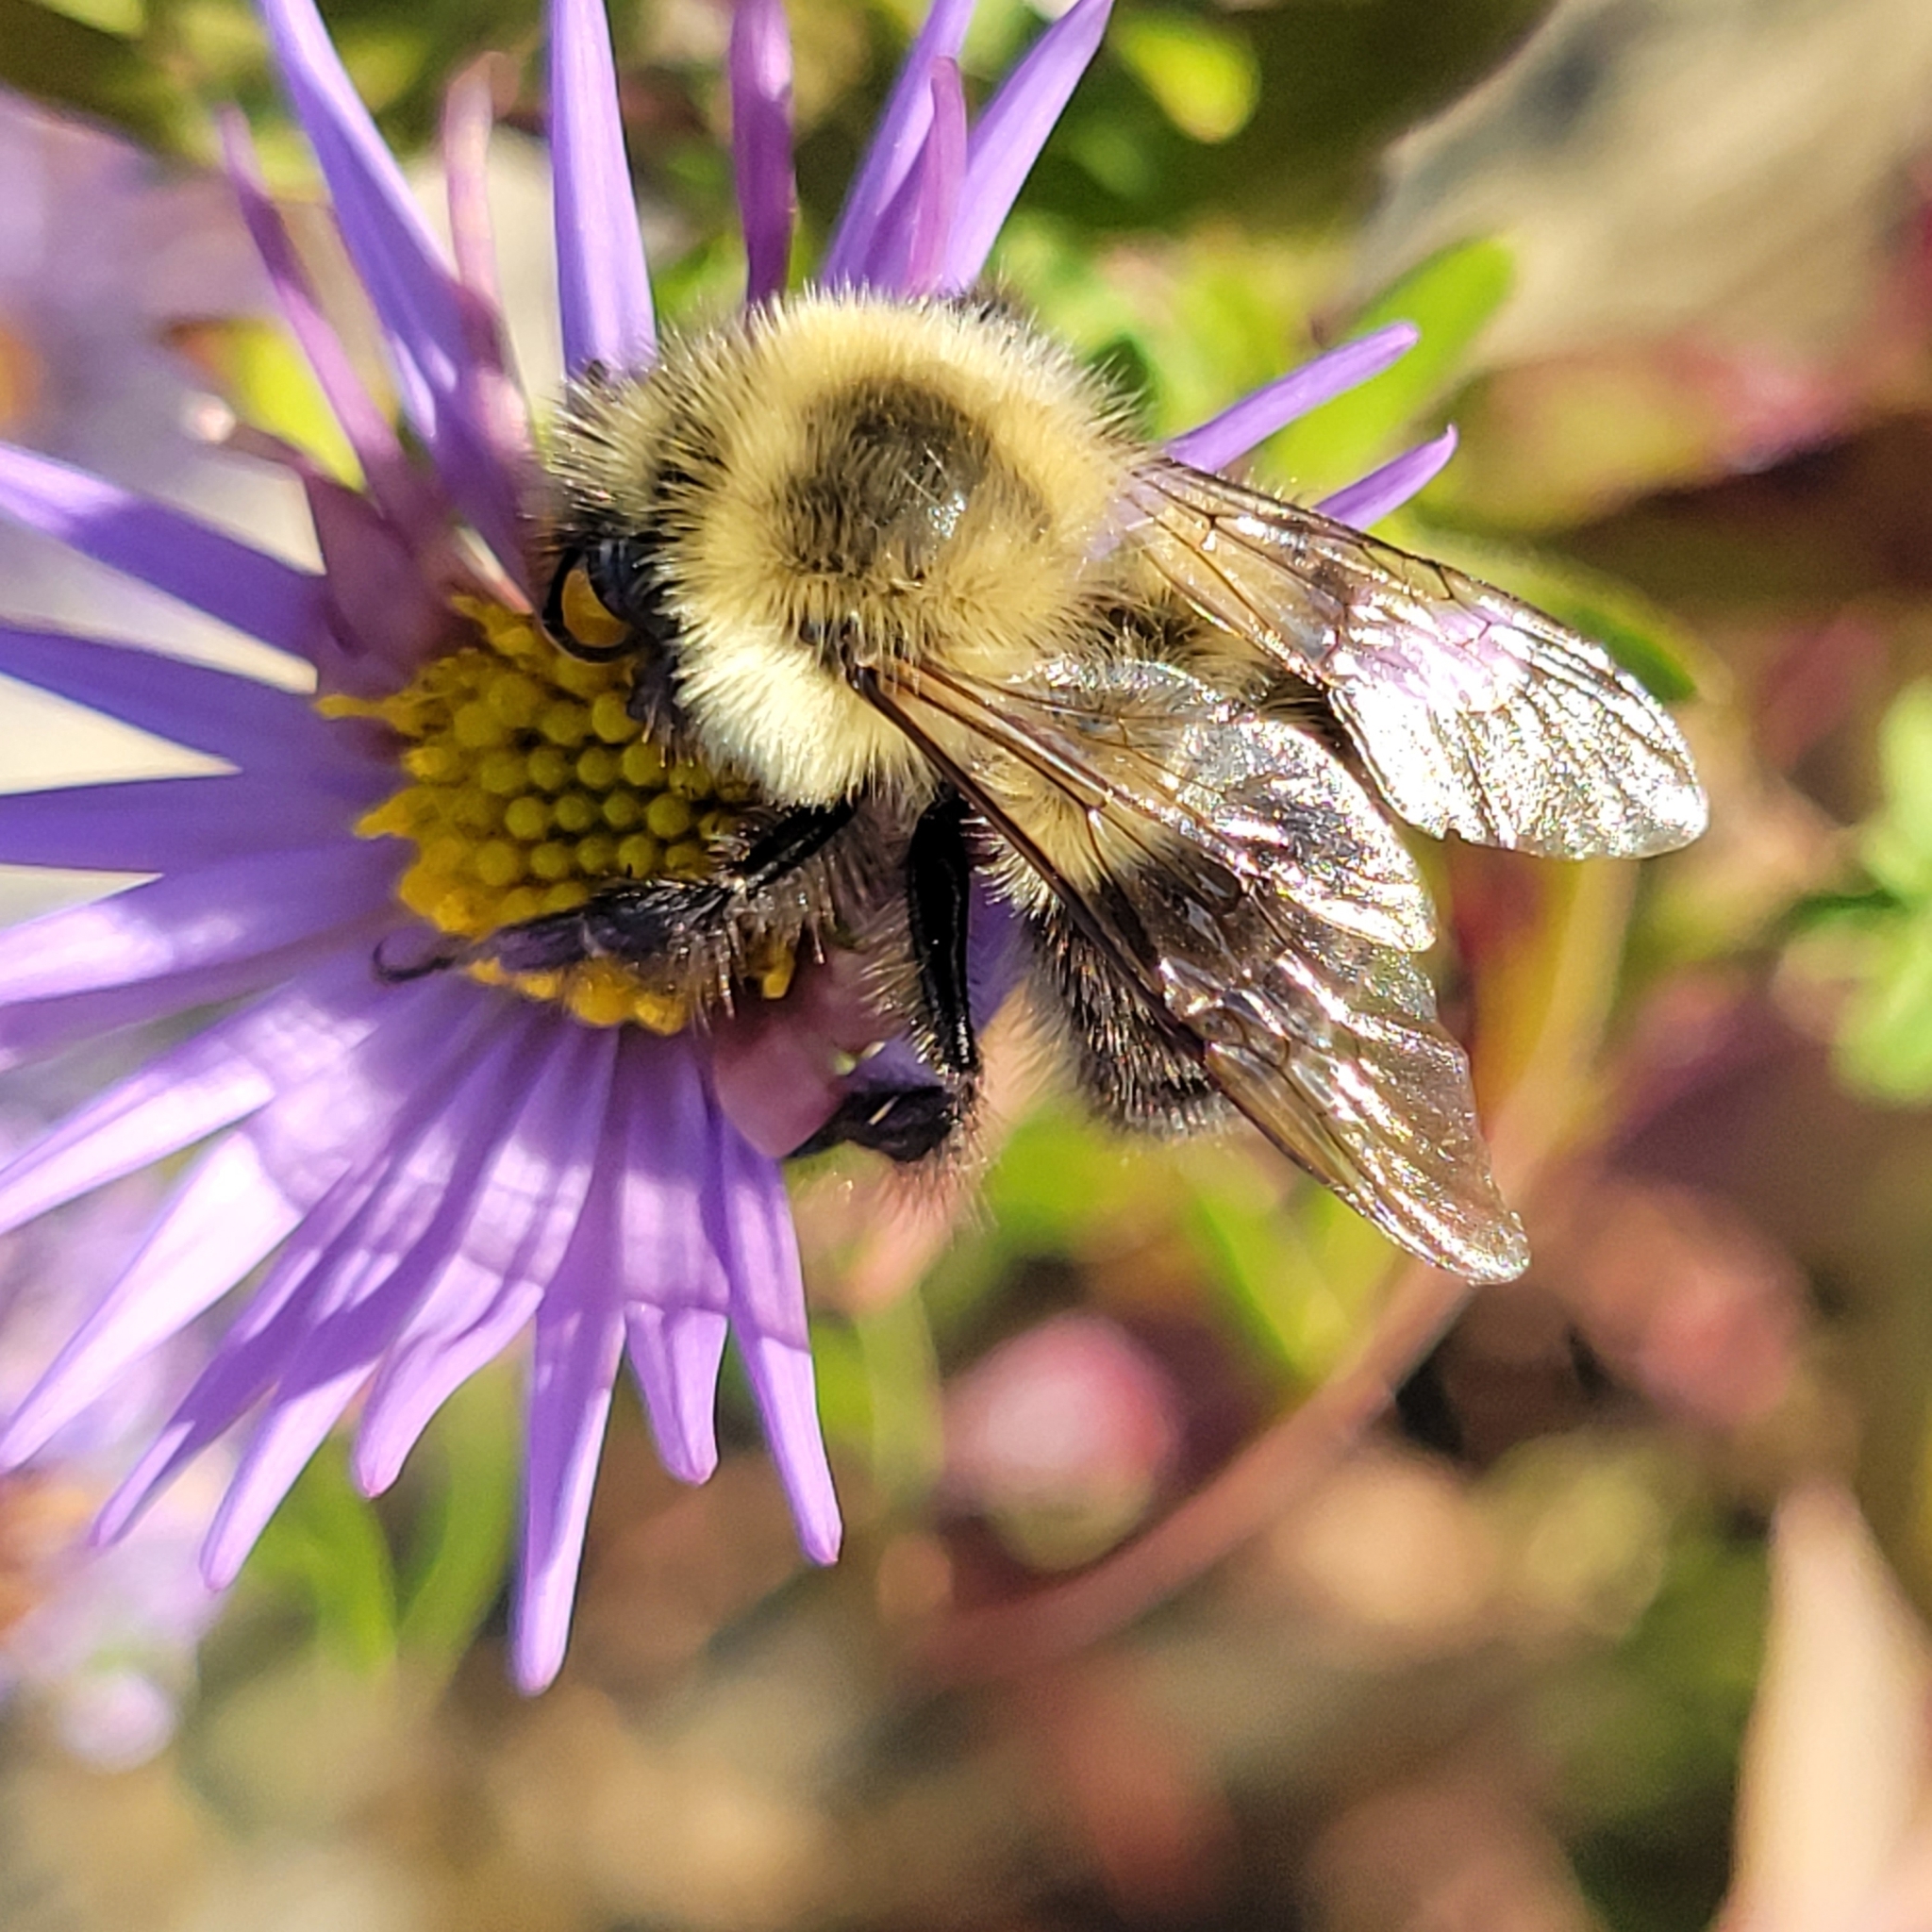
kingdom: Animalia
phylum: Arthropoda
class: Insecta
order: Hymenoptera
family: Apidae
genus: Bombus
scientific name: Bombus impatiens
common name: Common eastern bumble bee
